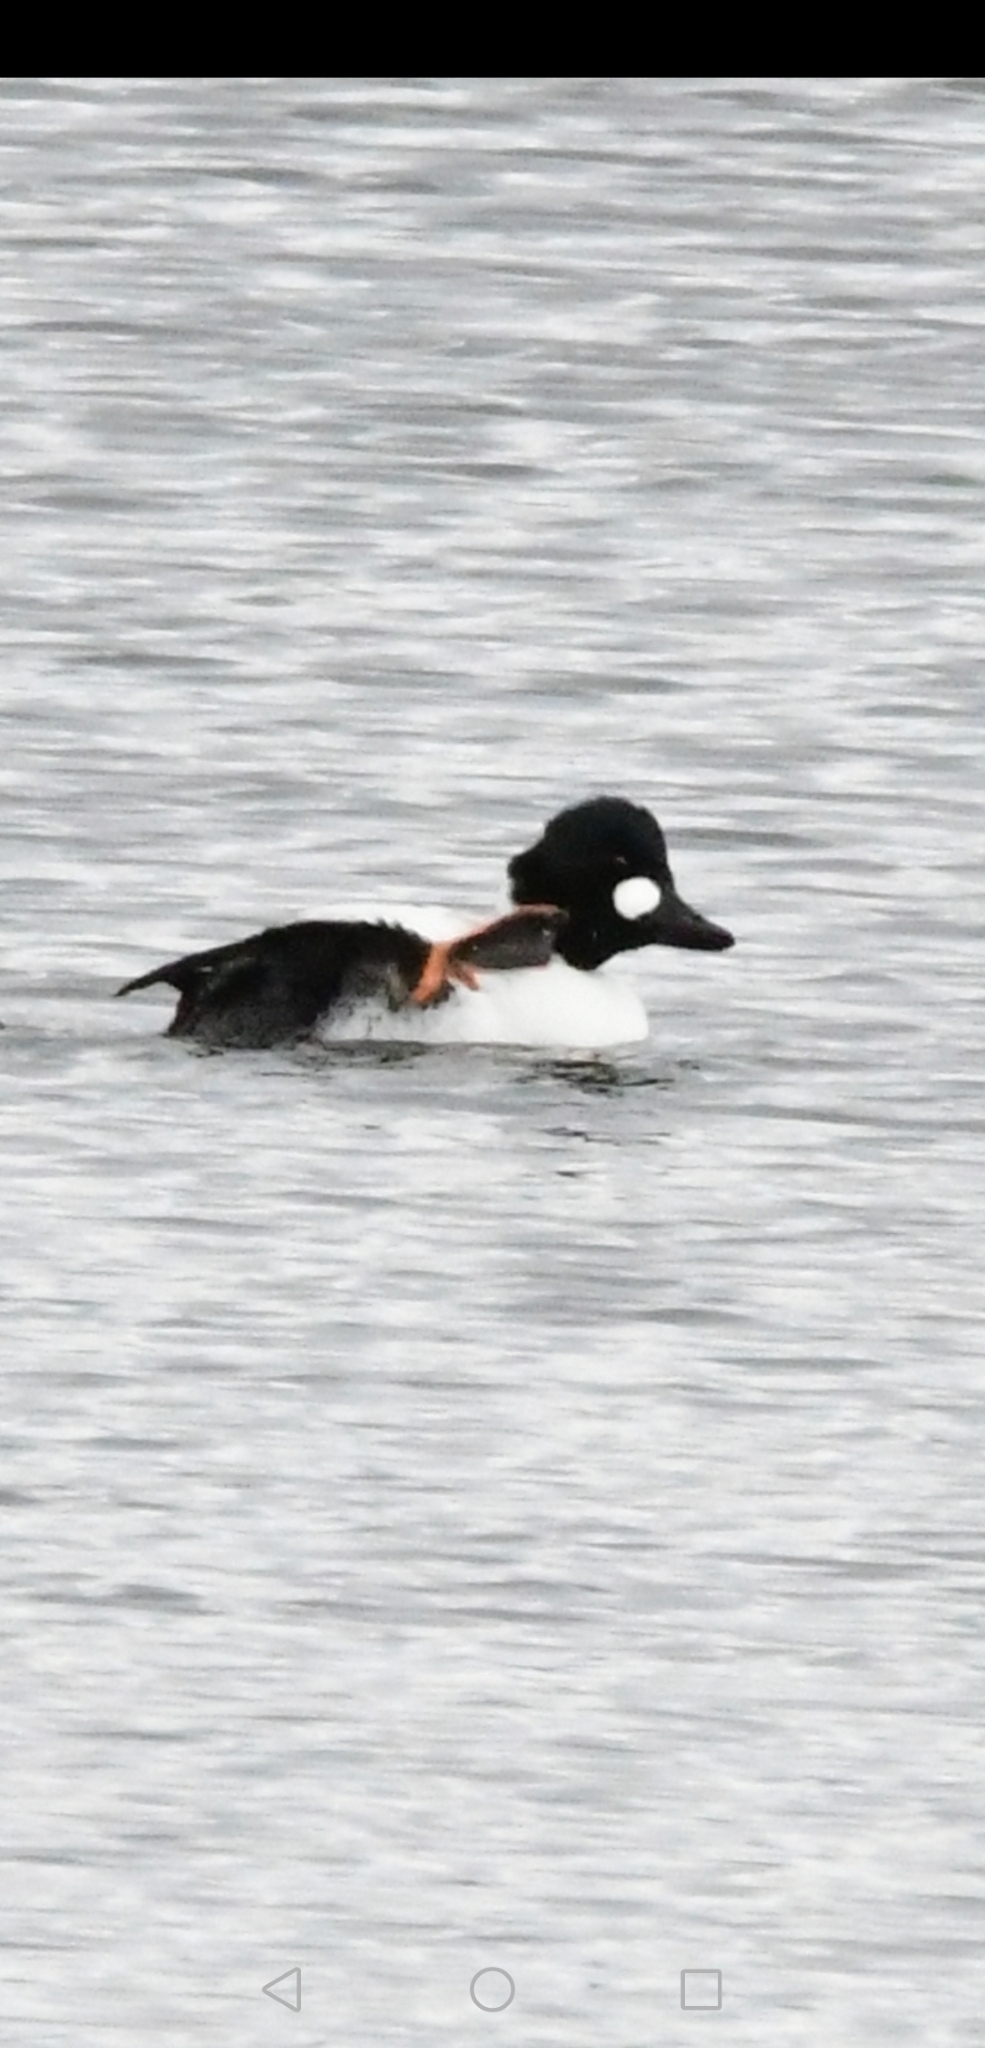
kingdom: Animalia
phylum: Chordata
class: Aves
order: Anseriformes
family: Anatidae
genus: Bucephala
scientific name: Bucephala clangula
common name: Common goldeneye
